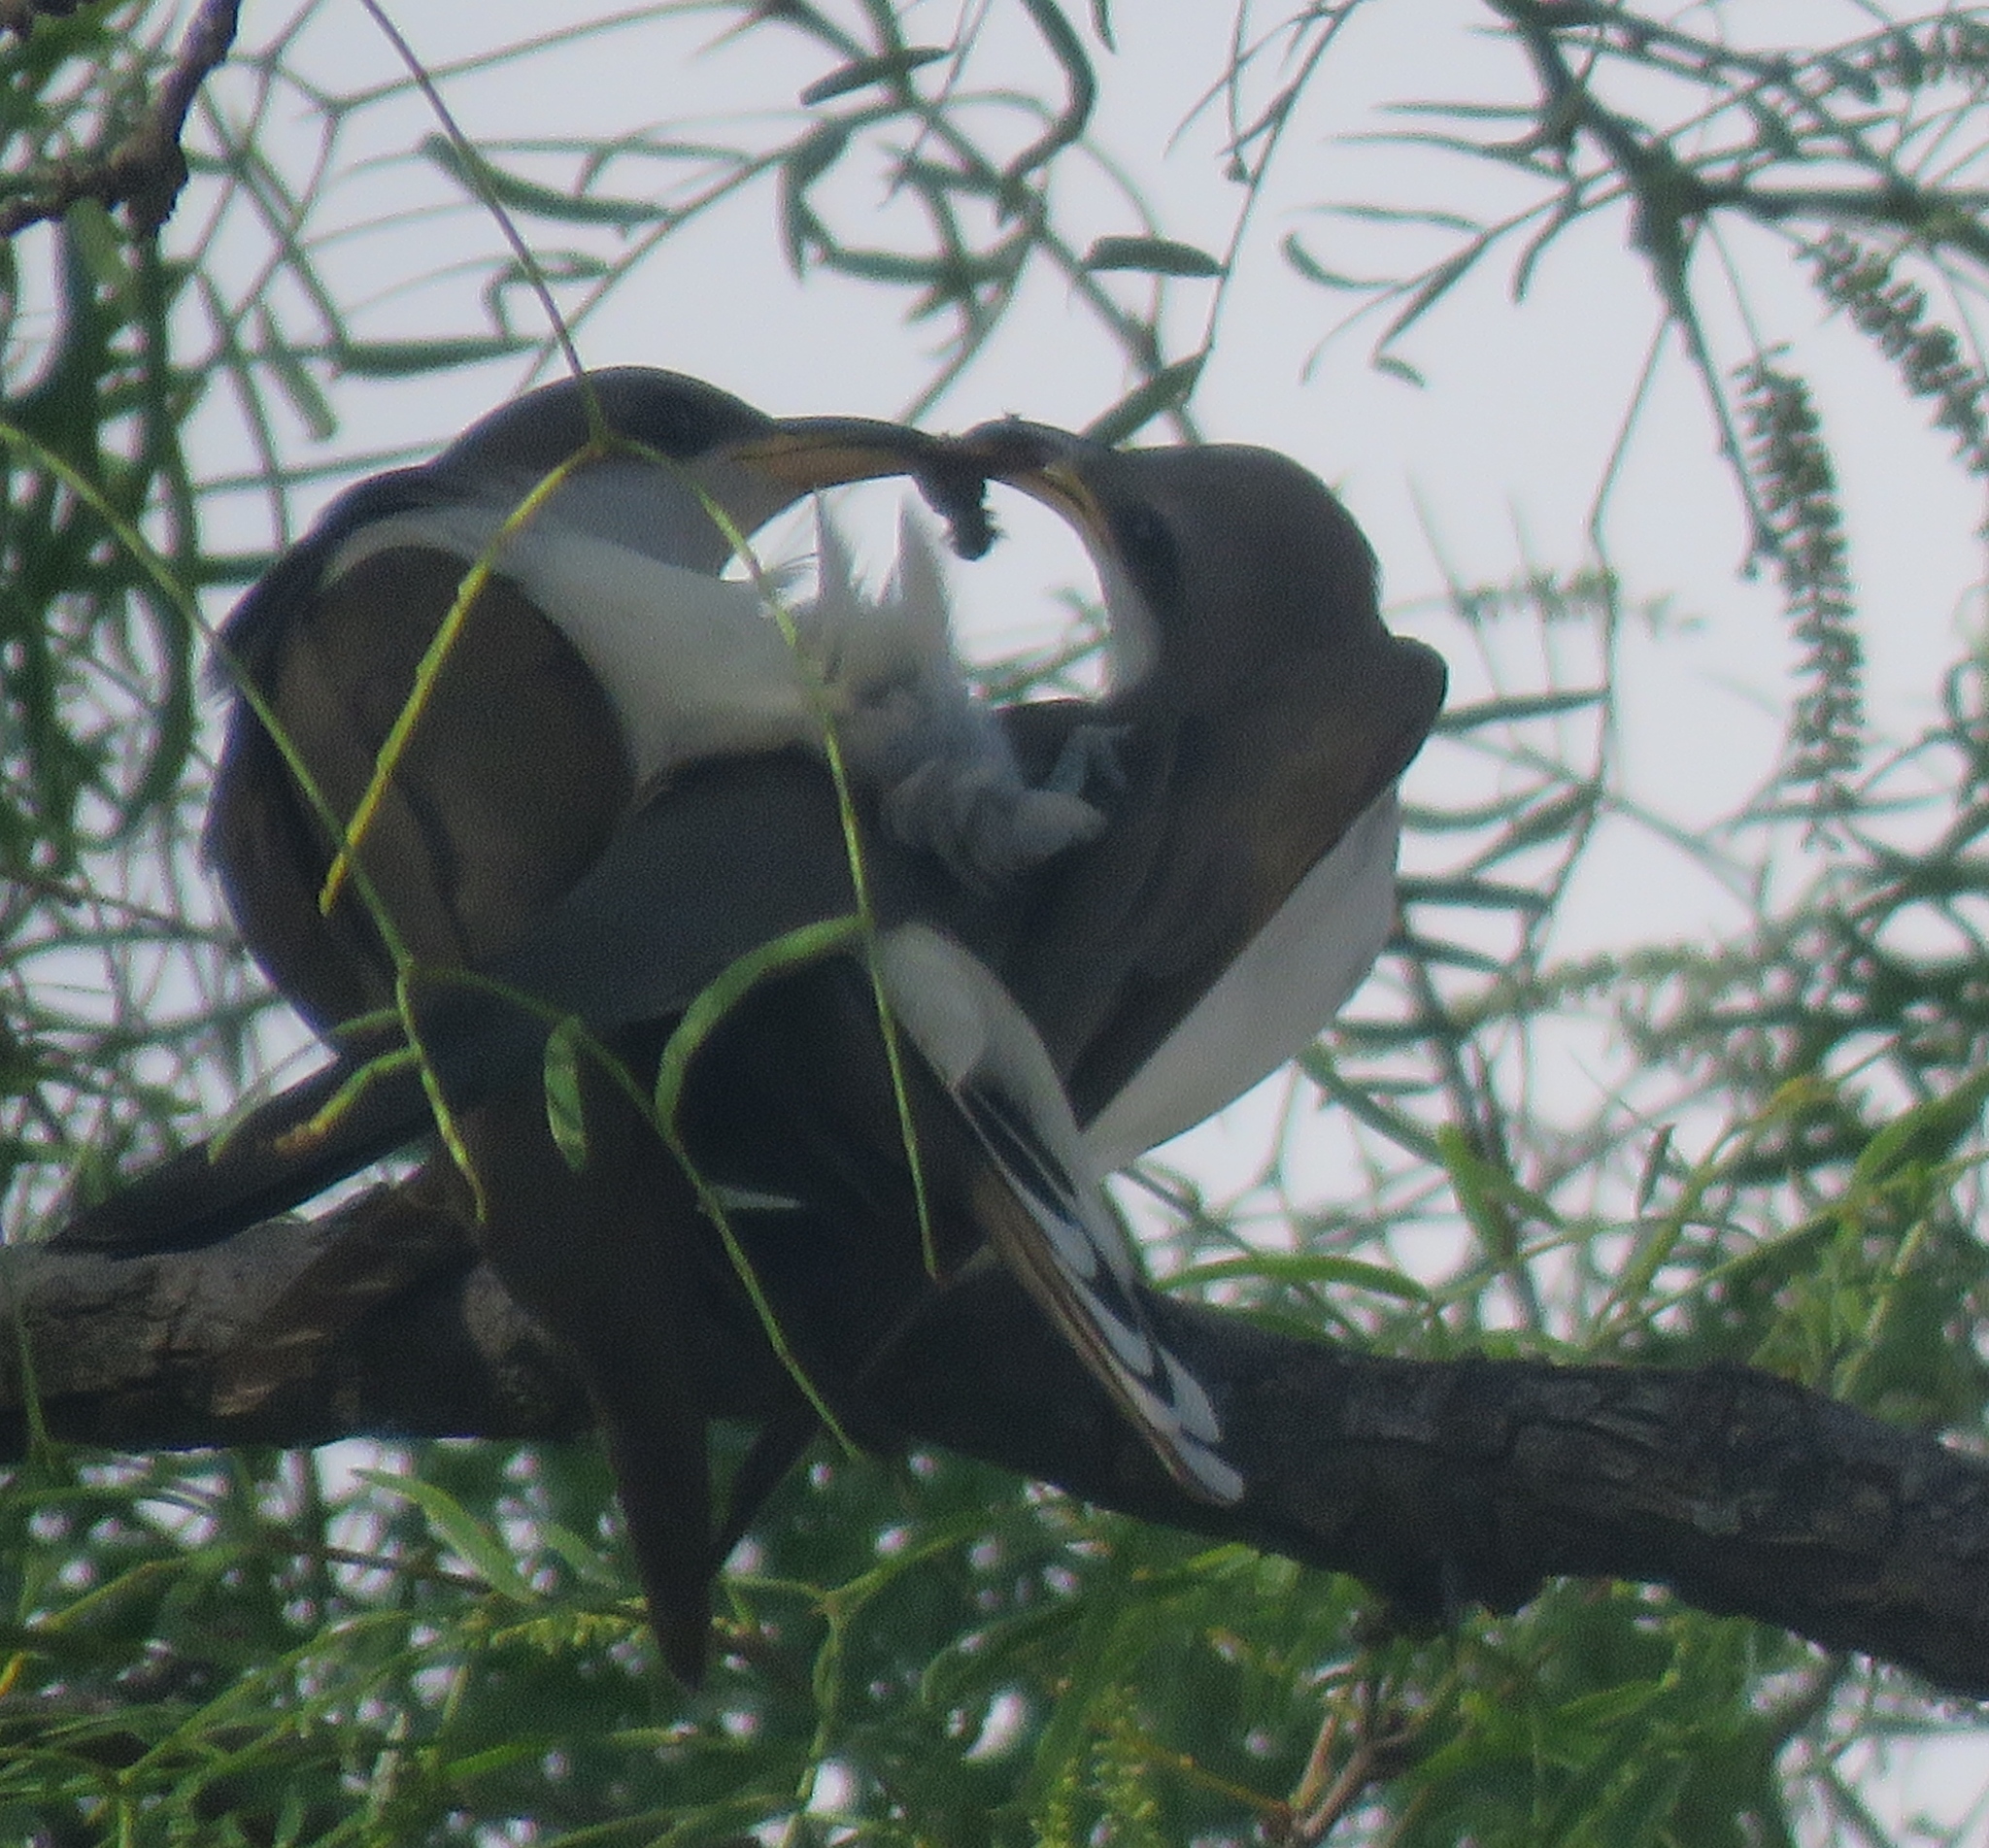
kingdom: Animalia
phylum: Chordata
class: Aves
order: Cuculiformes
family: Cuculidae
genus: Coccyzus
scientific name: Coccyzus americanus
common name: Yellow-billed cuckoo
